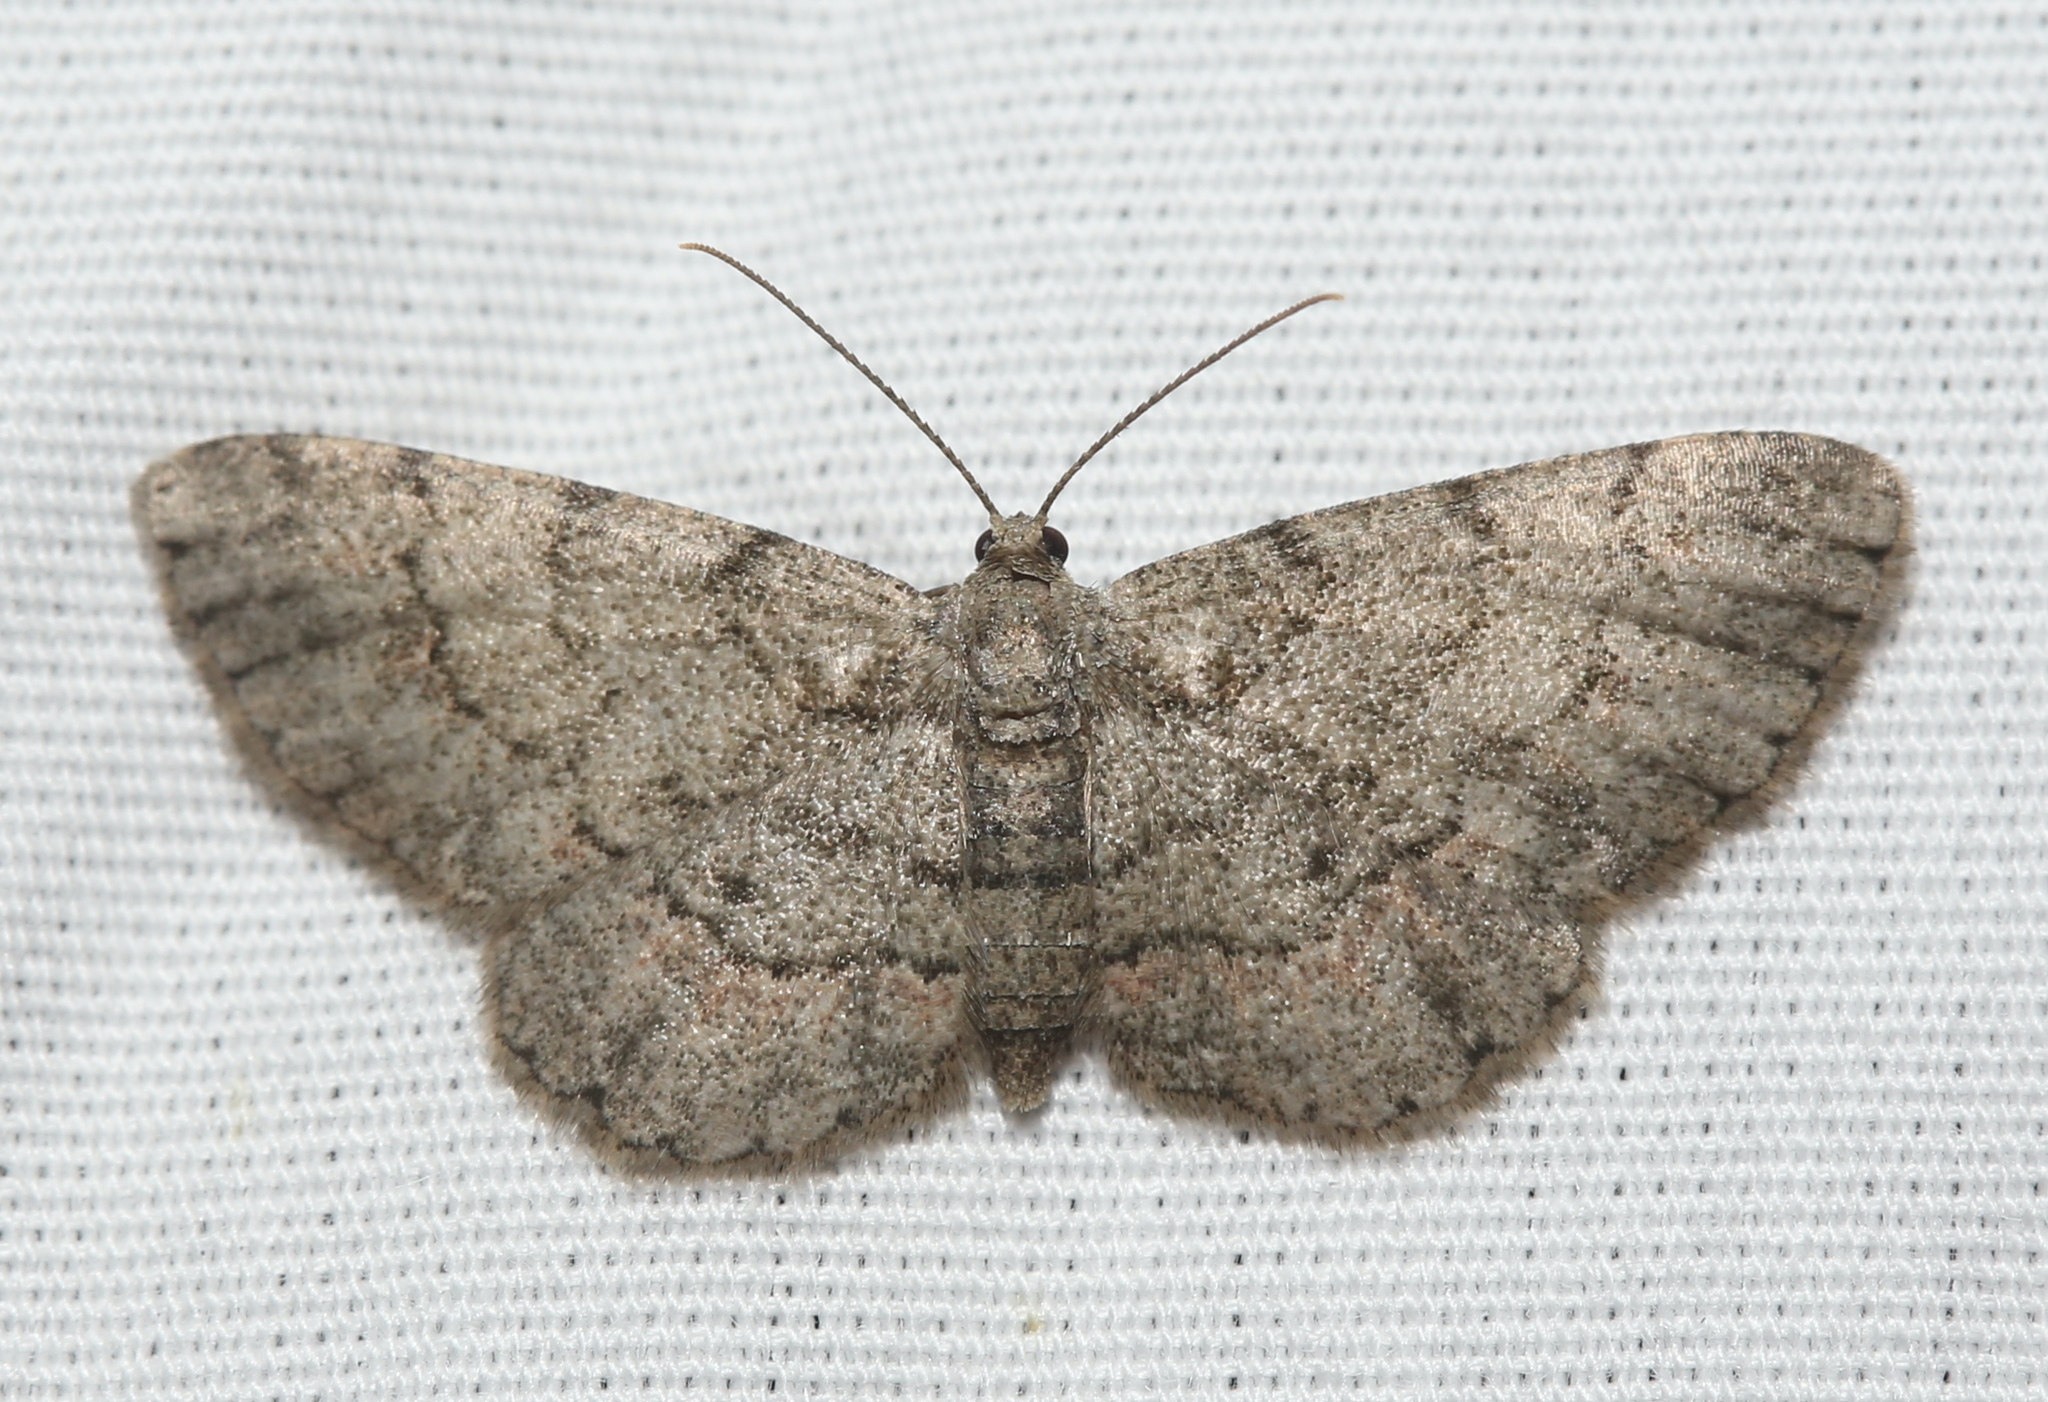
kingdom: Animalia
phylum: Arthropoda
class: Insecta
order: Lepidoptera
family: Geometridae
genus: Glenoides
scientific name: Glenoides texanaria
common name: Texas gray
